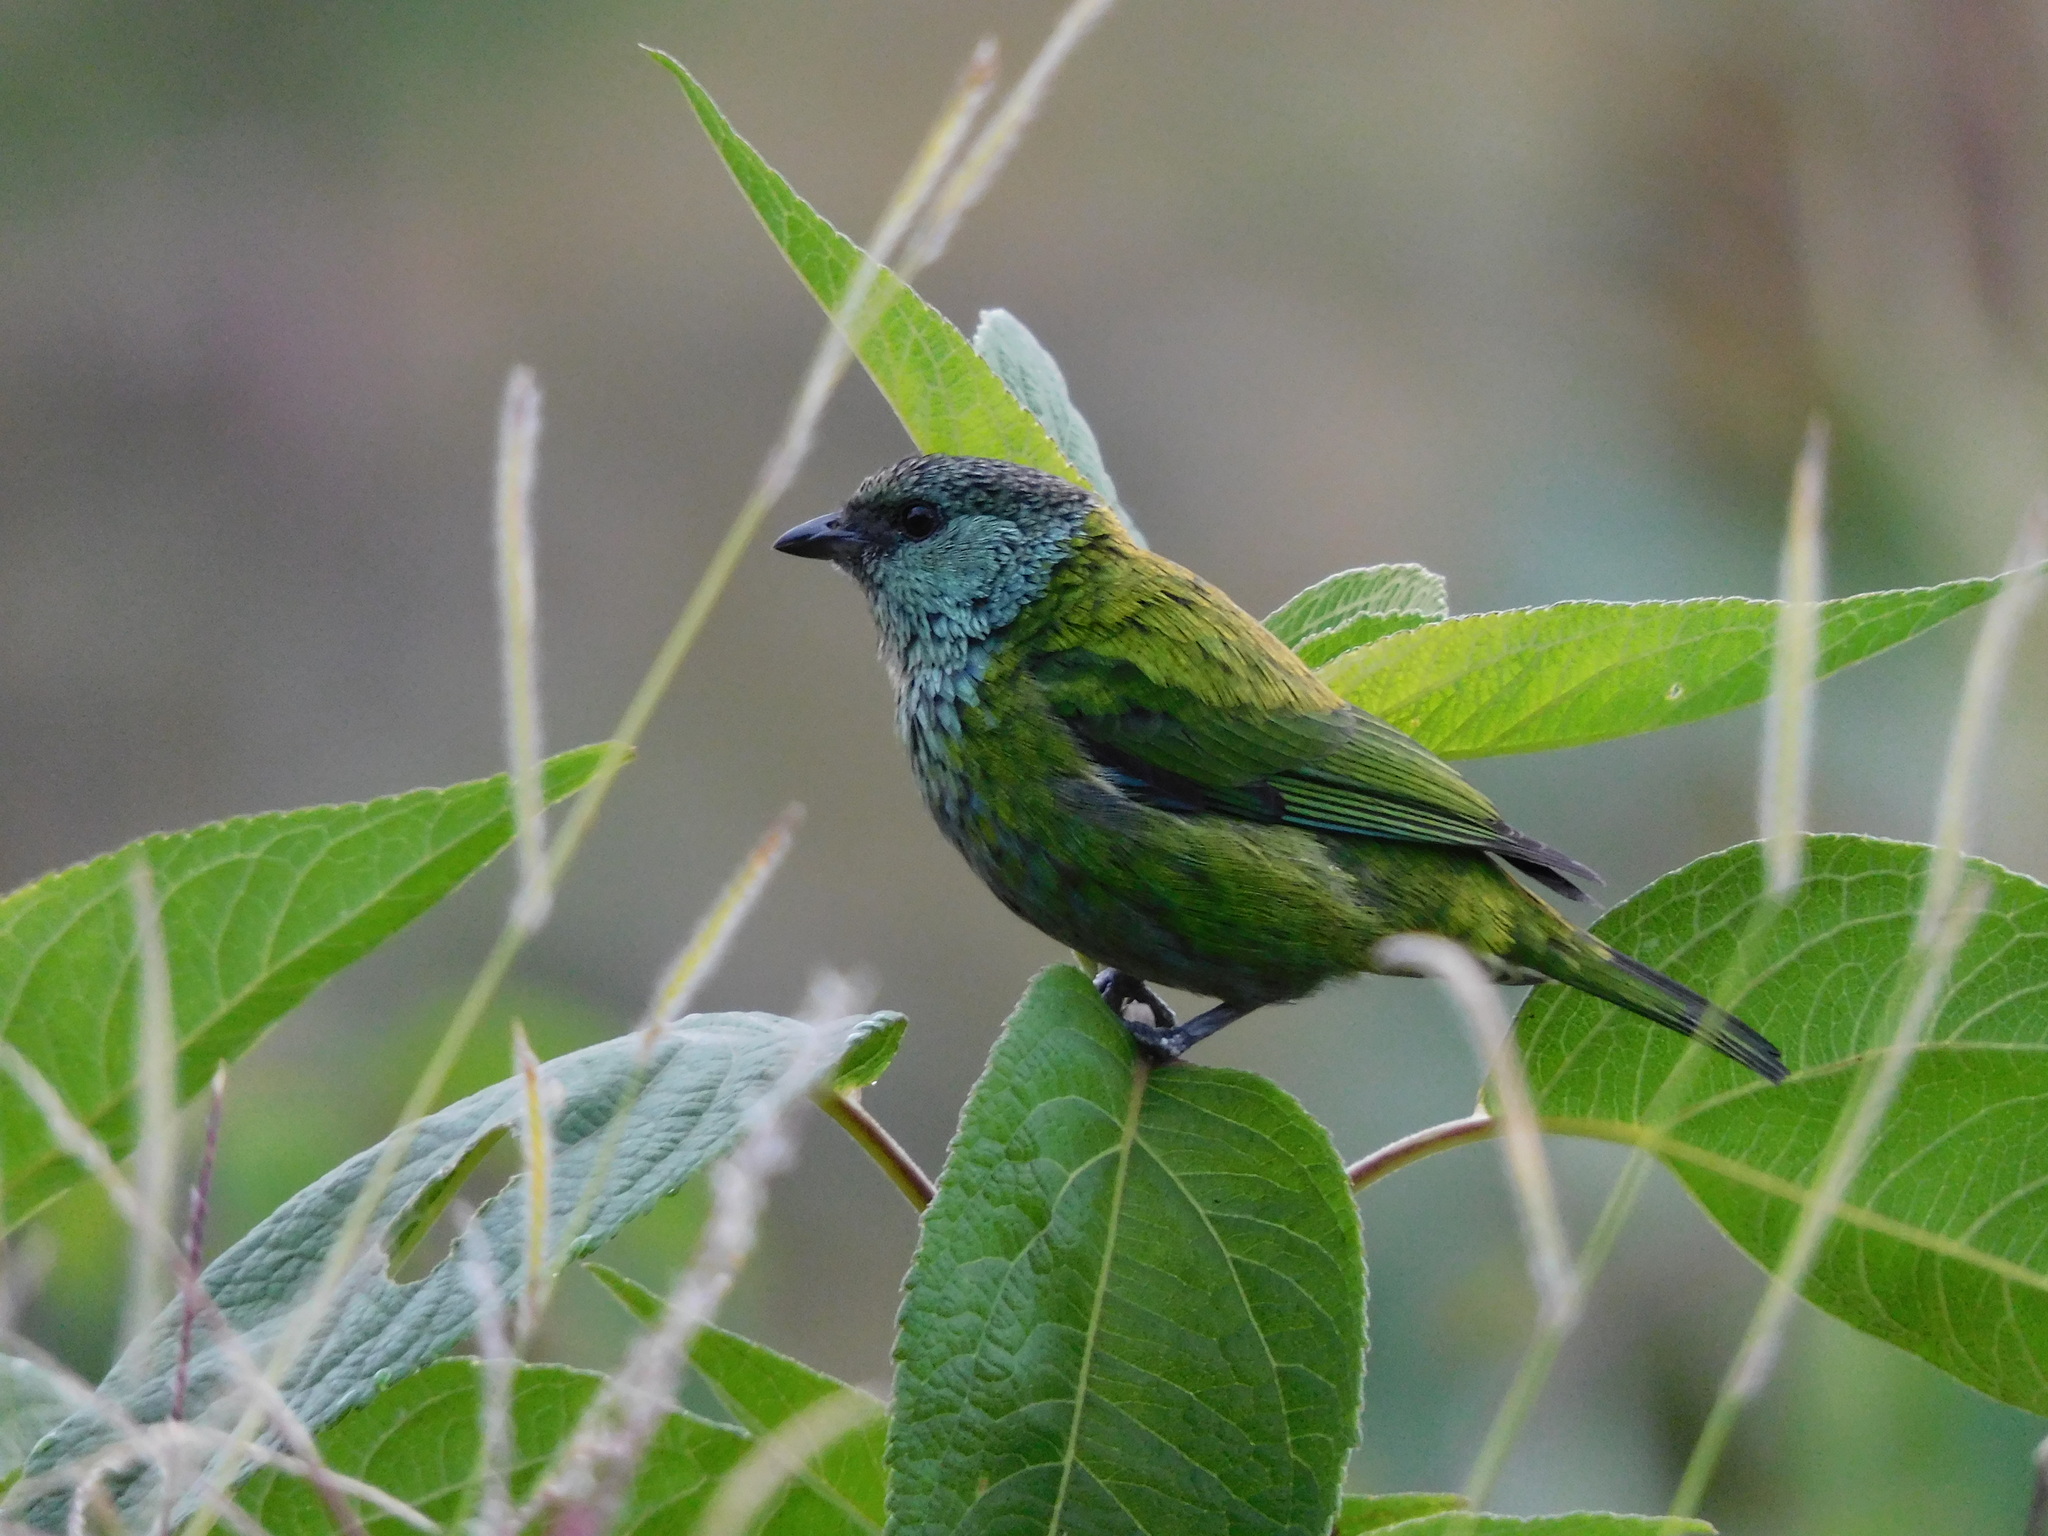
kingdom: Animalia
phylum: Chordata
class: Aves
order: Passeriformes
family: Thraupidae
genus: Stilpnia
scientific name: Stilpnia heinei
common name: Black-capped tanager
